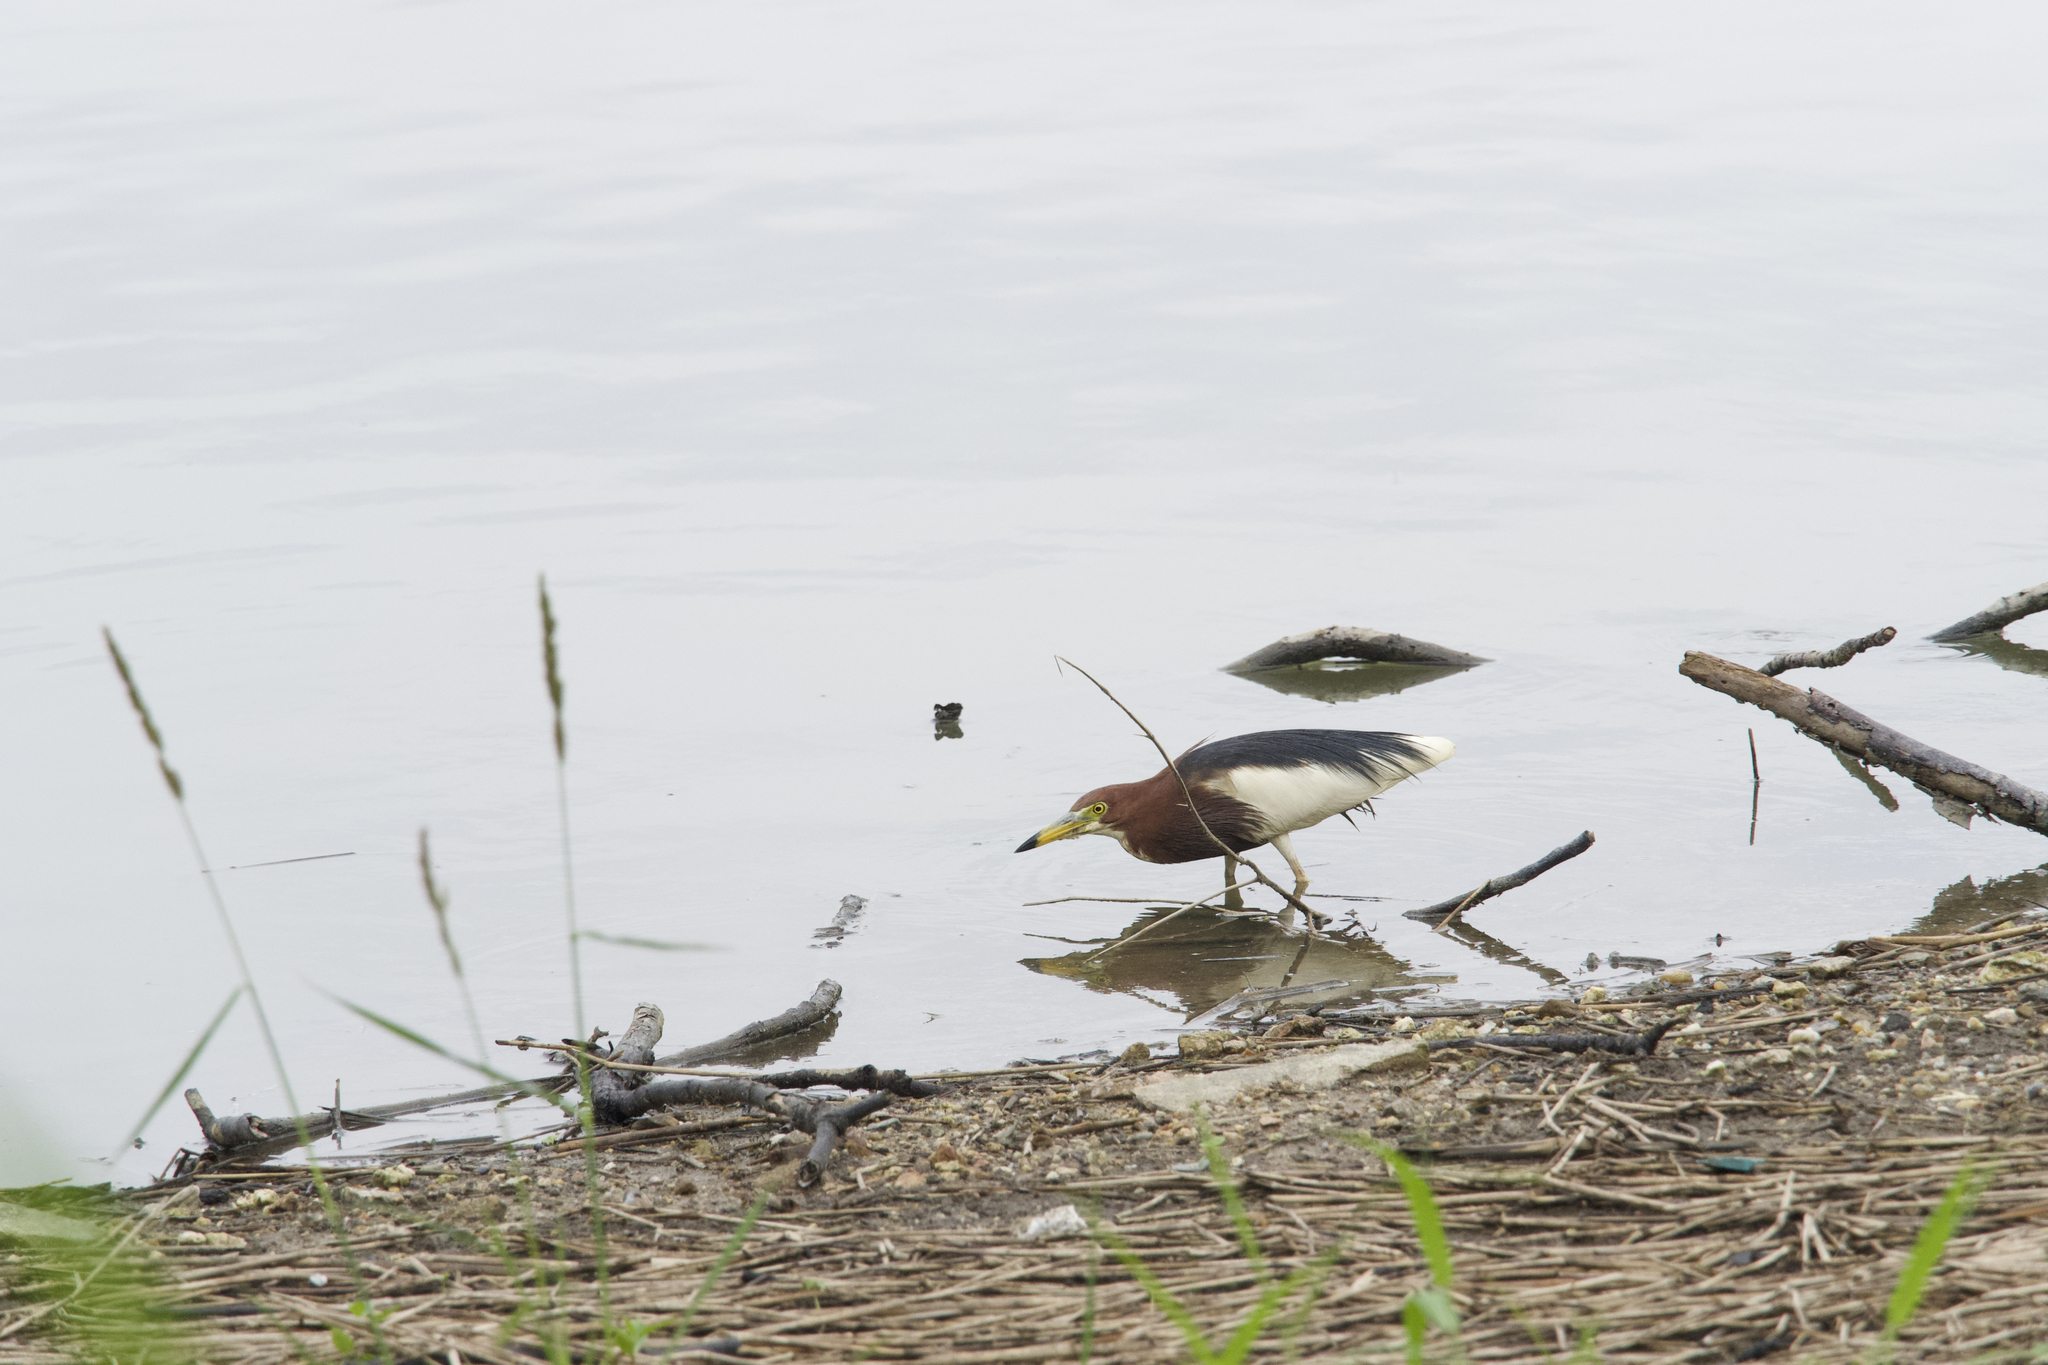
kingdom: Animalia
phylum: Chordata
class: Aves
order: Pelecaniformes
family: Ardeidae
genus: Ardeola
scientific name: Ardeola bacchus
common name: Chinese pond heron
